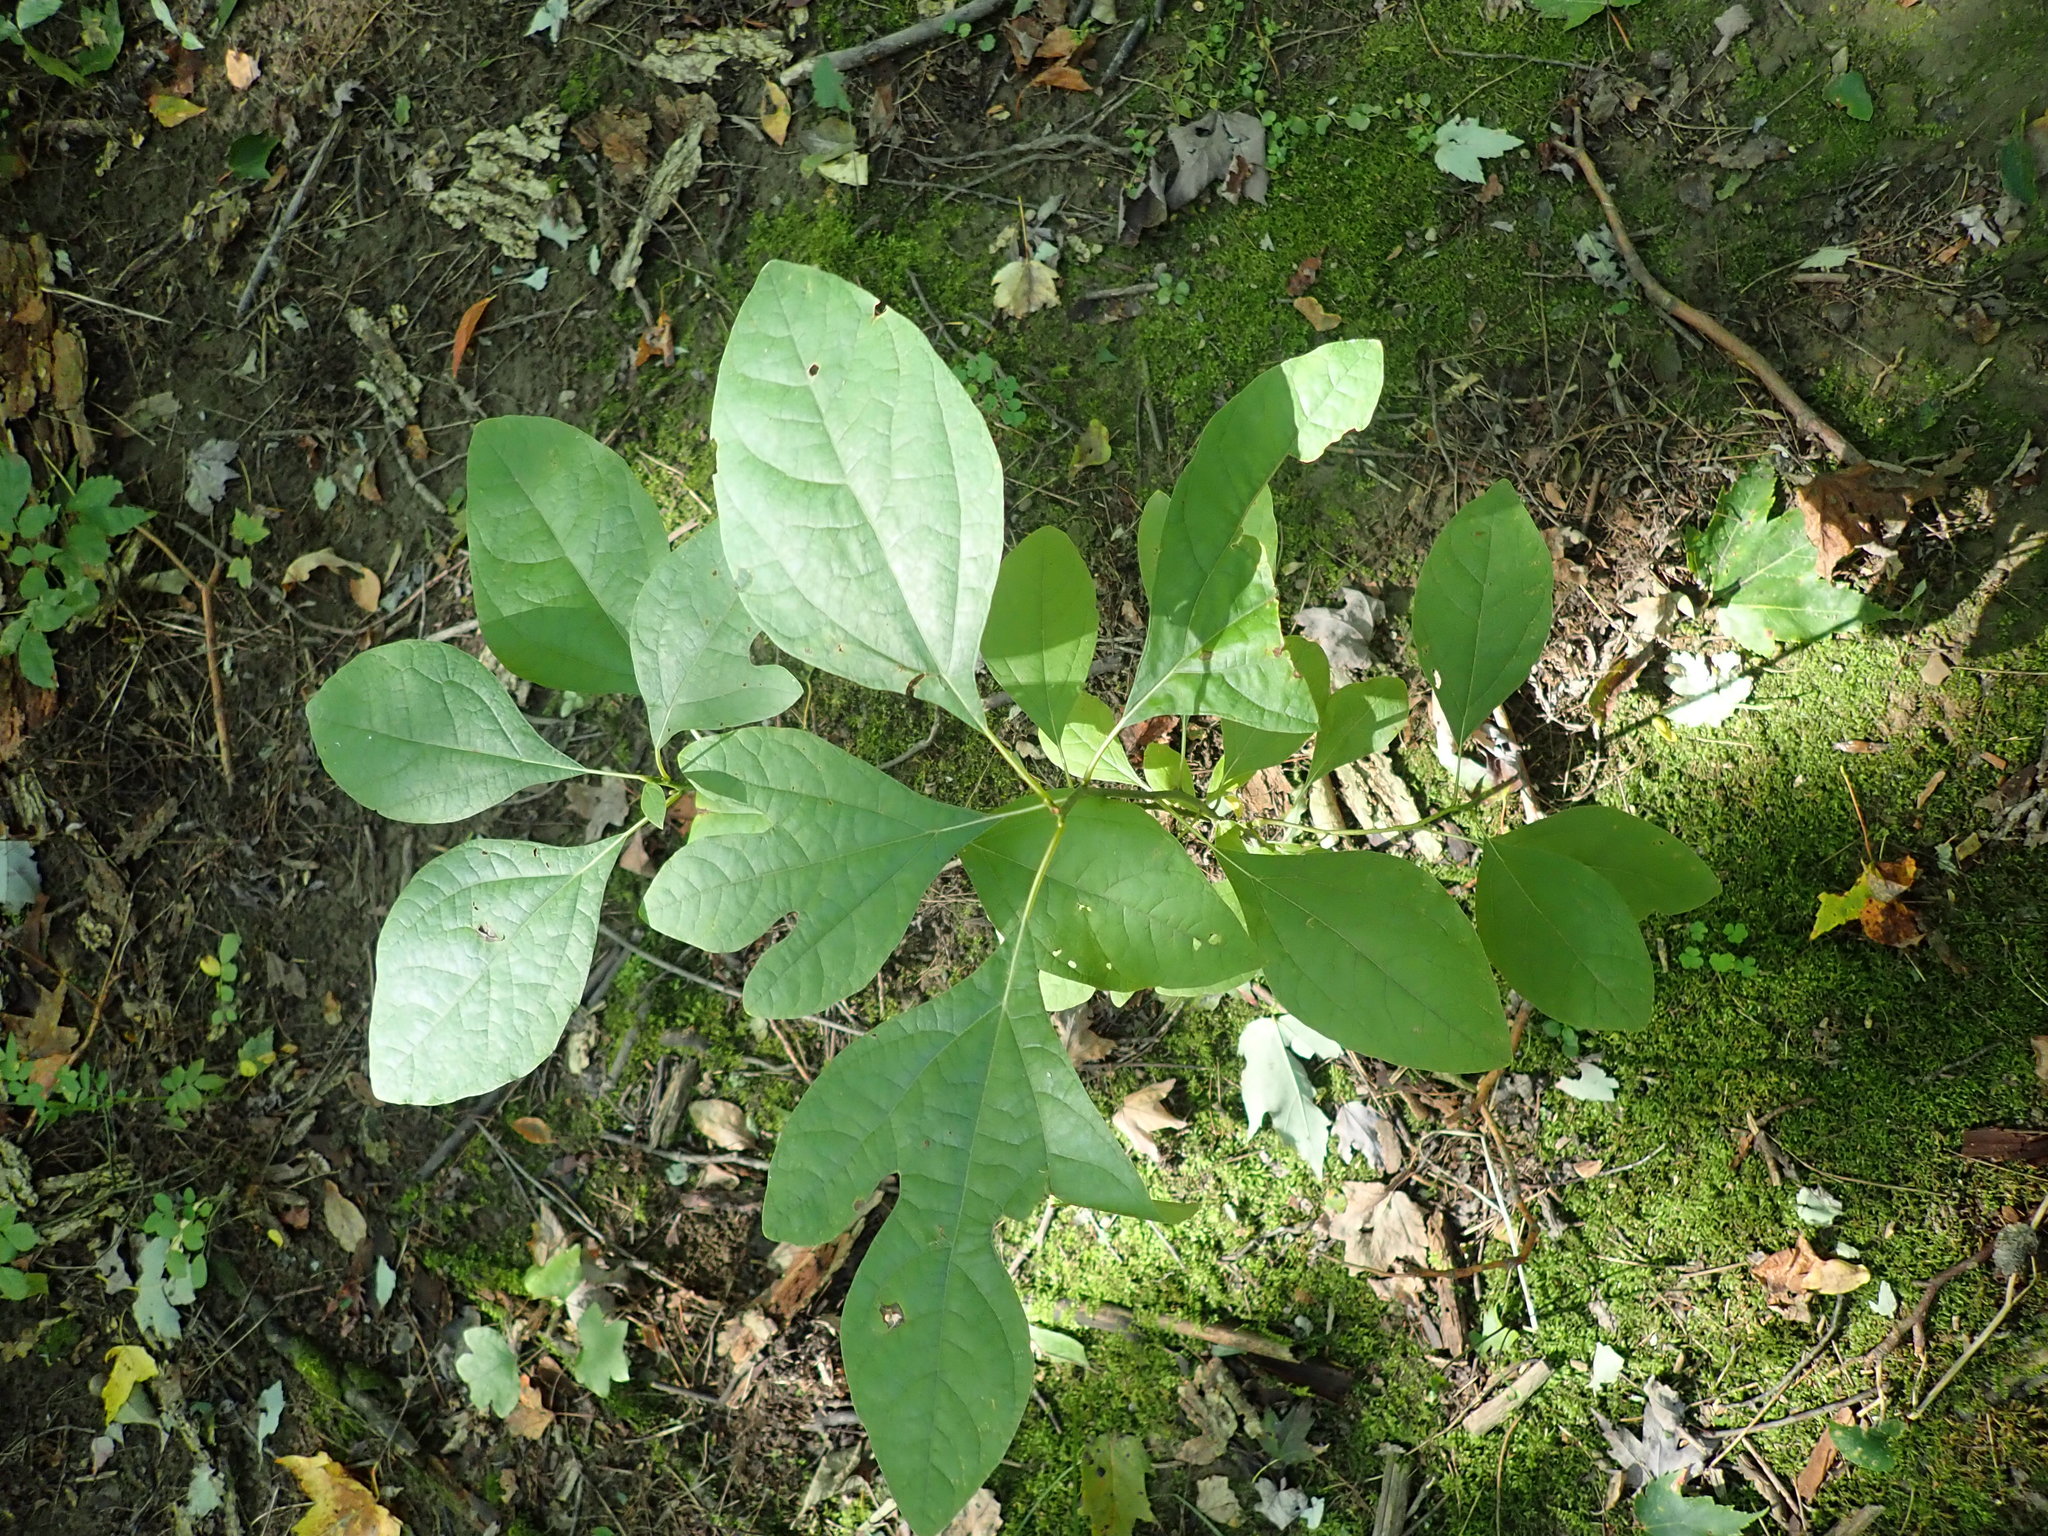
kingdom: Plantae
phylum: Tracheophyta
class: Magnoliopsida
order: Laurales
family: Lauraceae
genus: Sassafras
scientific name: Sassafras albidum
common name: Sassafras
